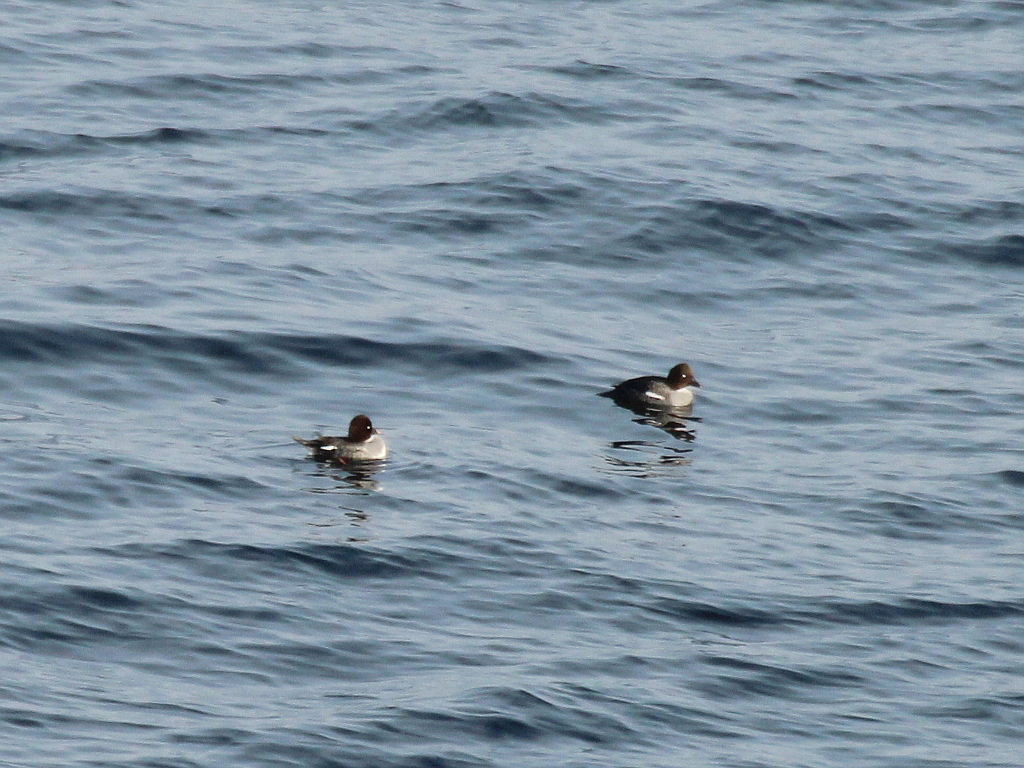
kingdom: Animalia
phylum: Chordata
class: Aves
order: Anseriformes
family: Anatidae
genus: Bucephala
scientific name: Bucephala clangula
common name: Common goldeneye
